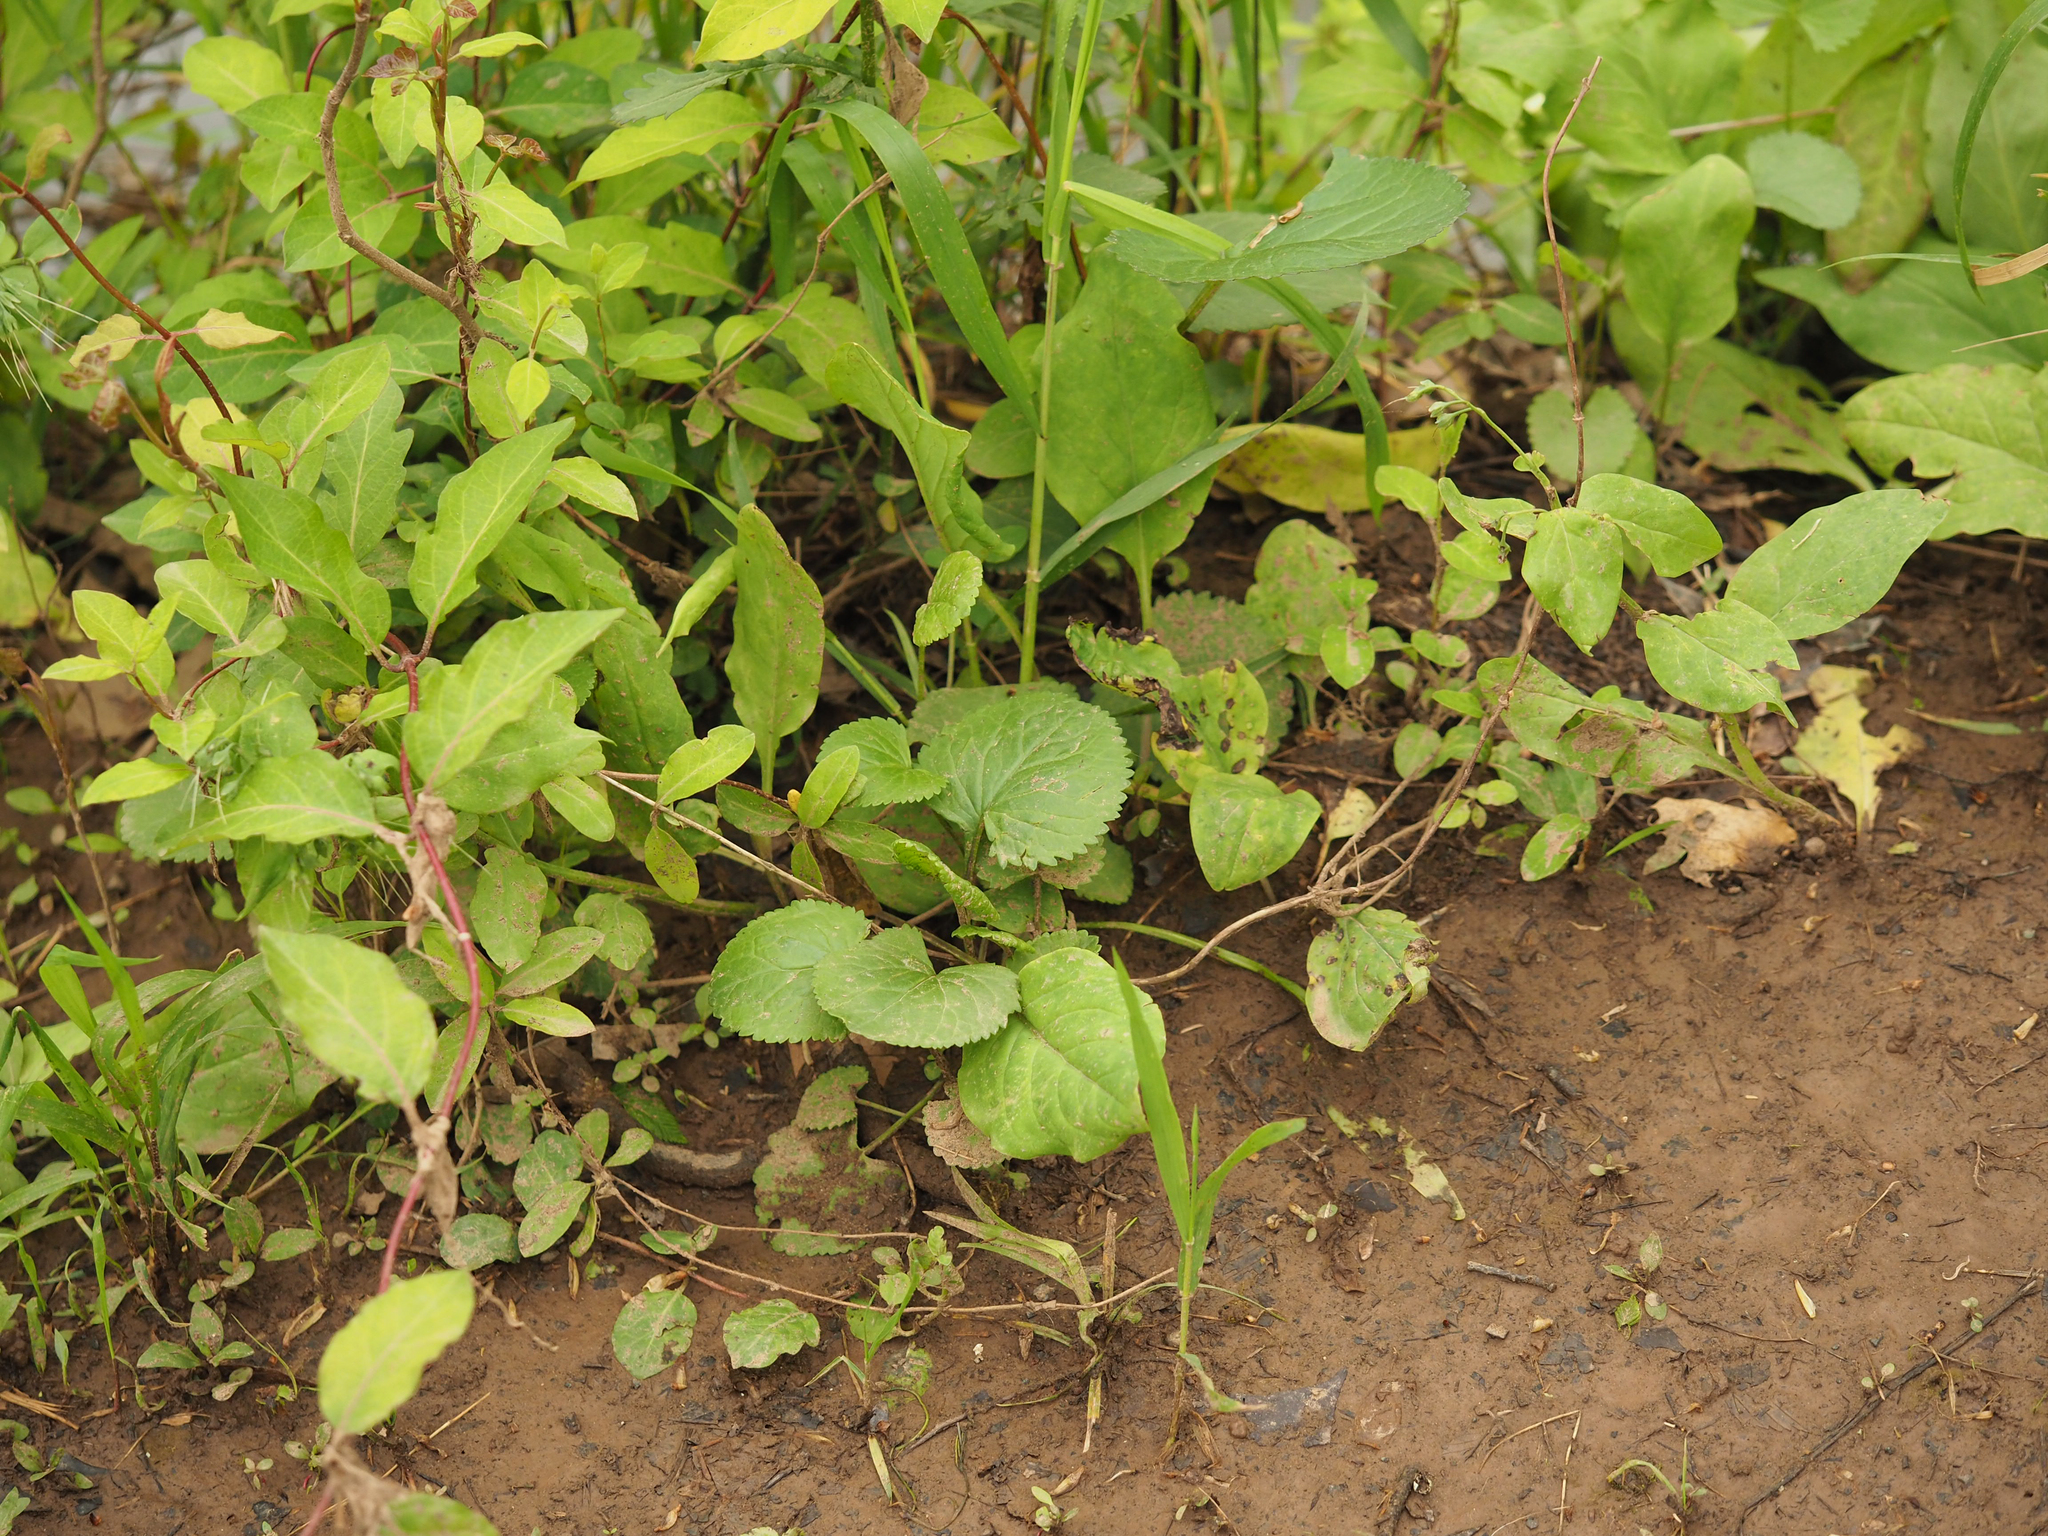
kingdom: Plantae
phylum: Tracheophyta
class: Magnoliopsida
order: Asterales
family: Asteraceae
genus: Packera
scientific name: Packera aurea
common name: Golden groundsel
